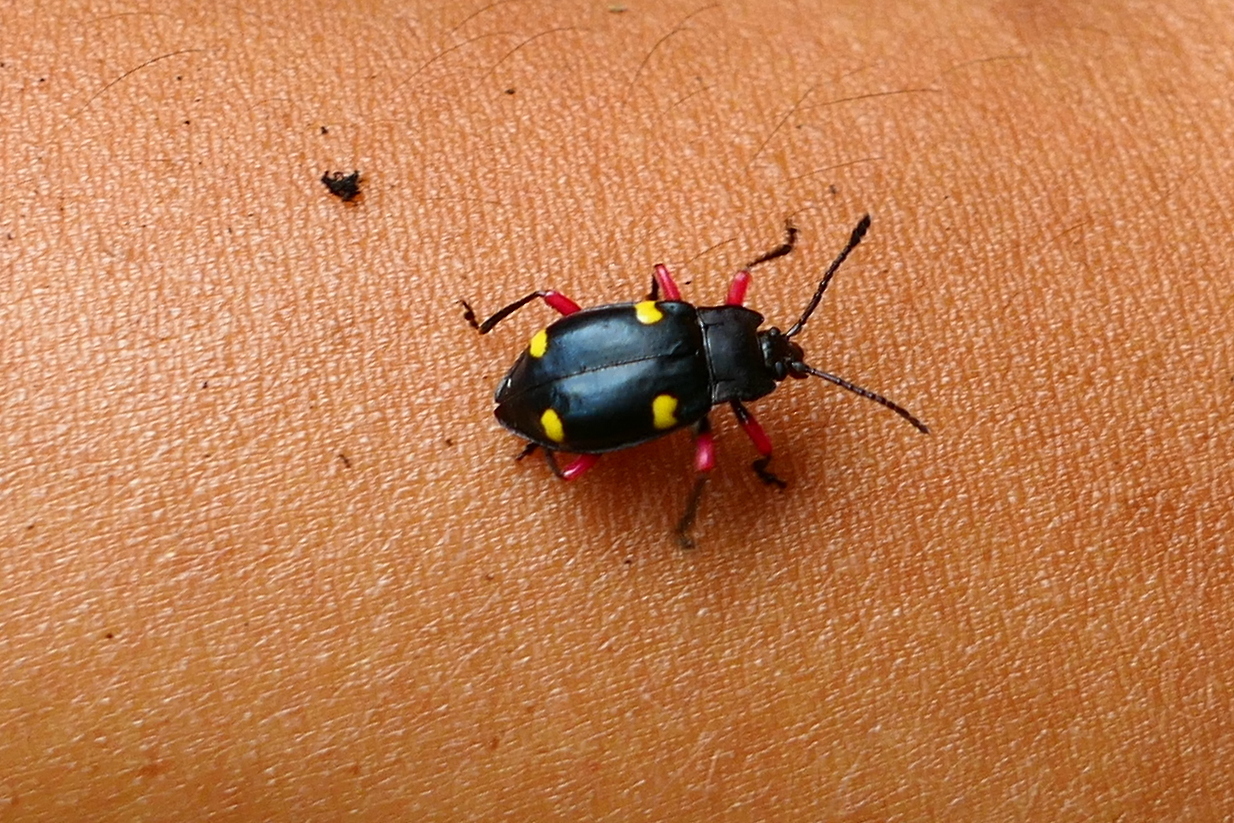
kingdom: Animalia
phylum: Arthropoda
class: Insecta
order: Coleoptera
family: Endomychidae
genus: Eumorphus
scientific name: Eumorphus quadriguttatus
